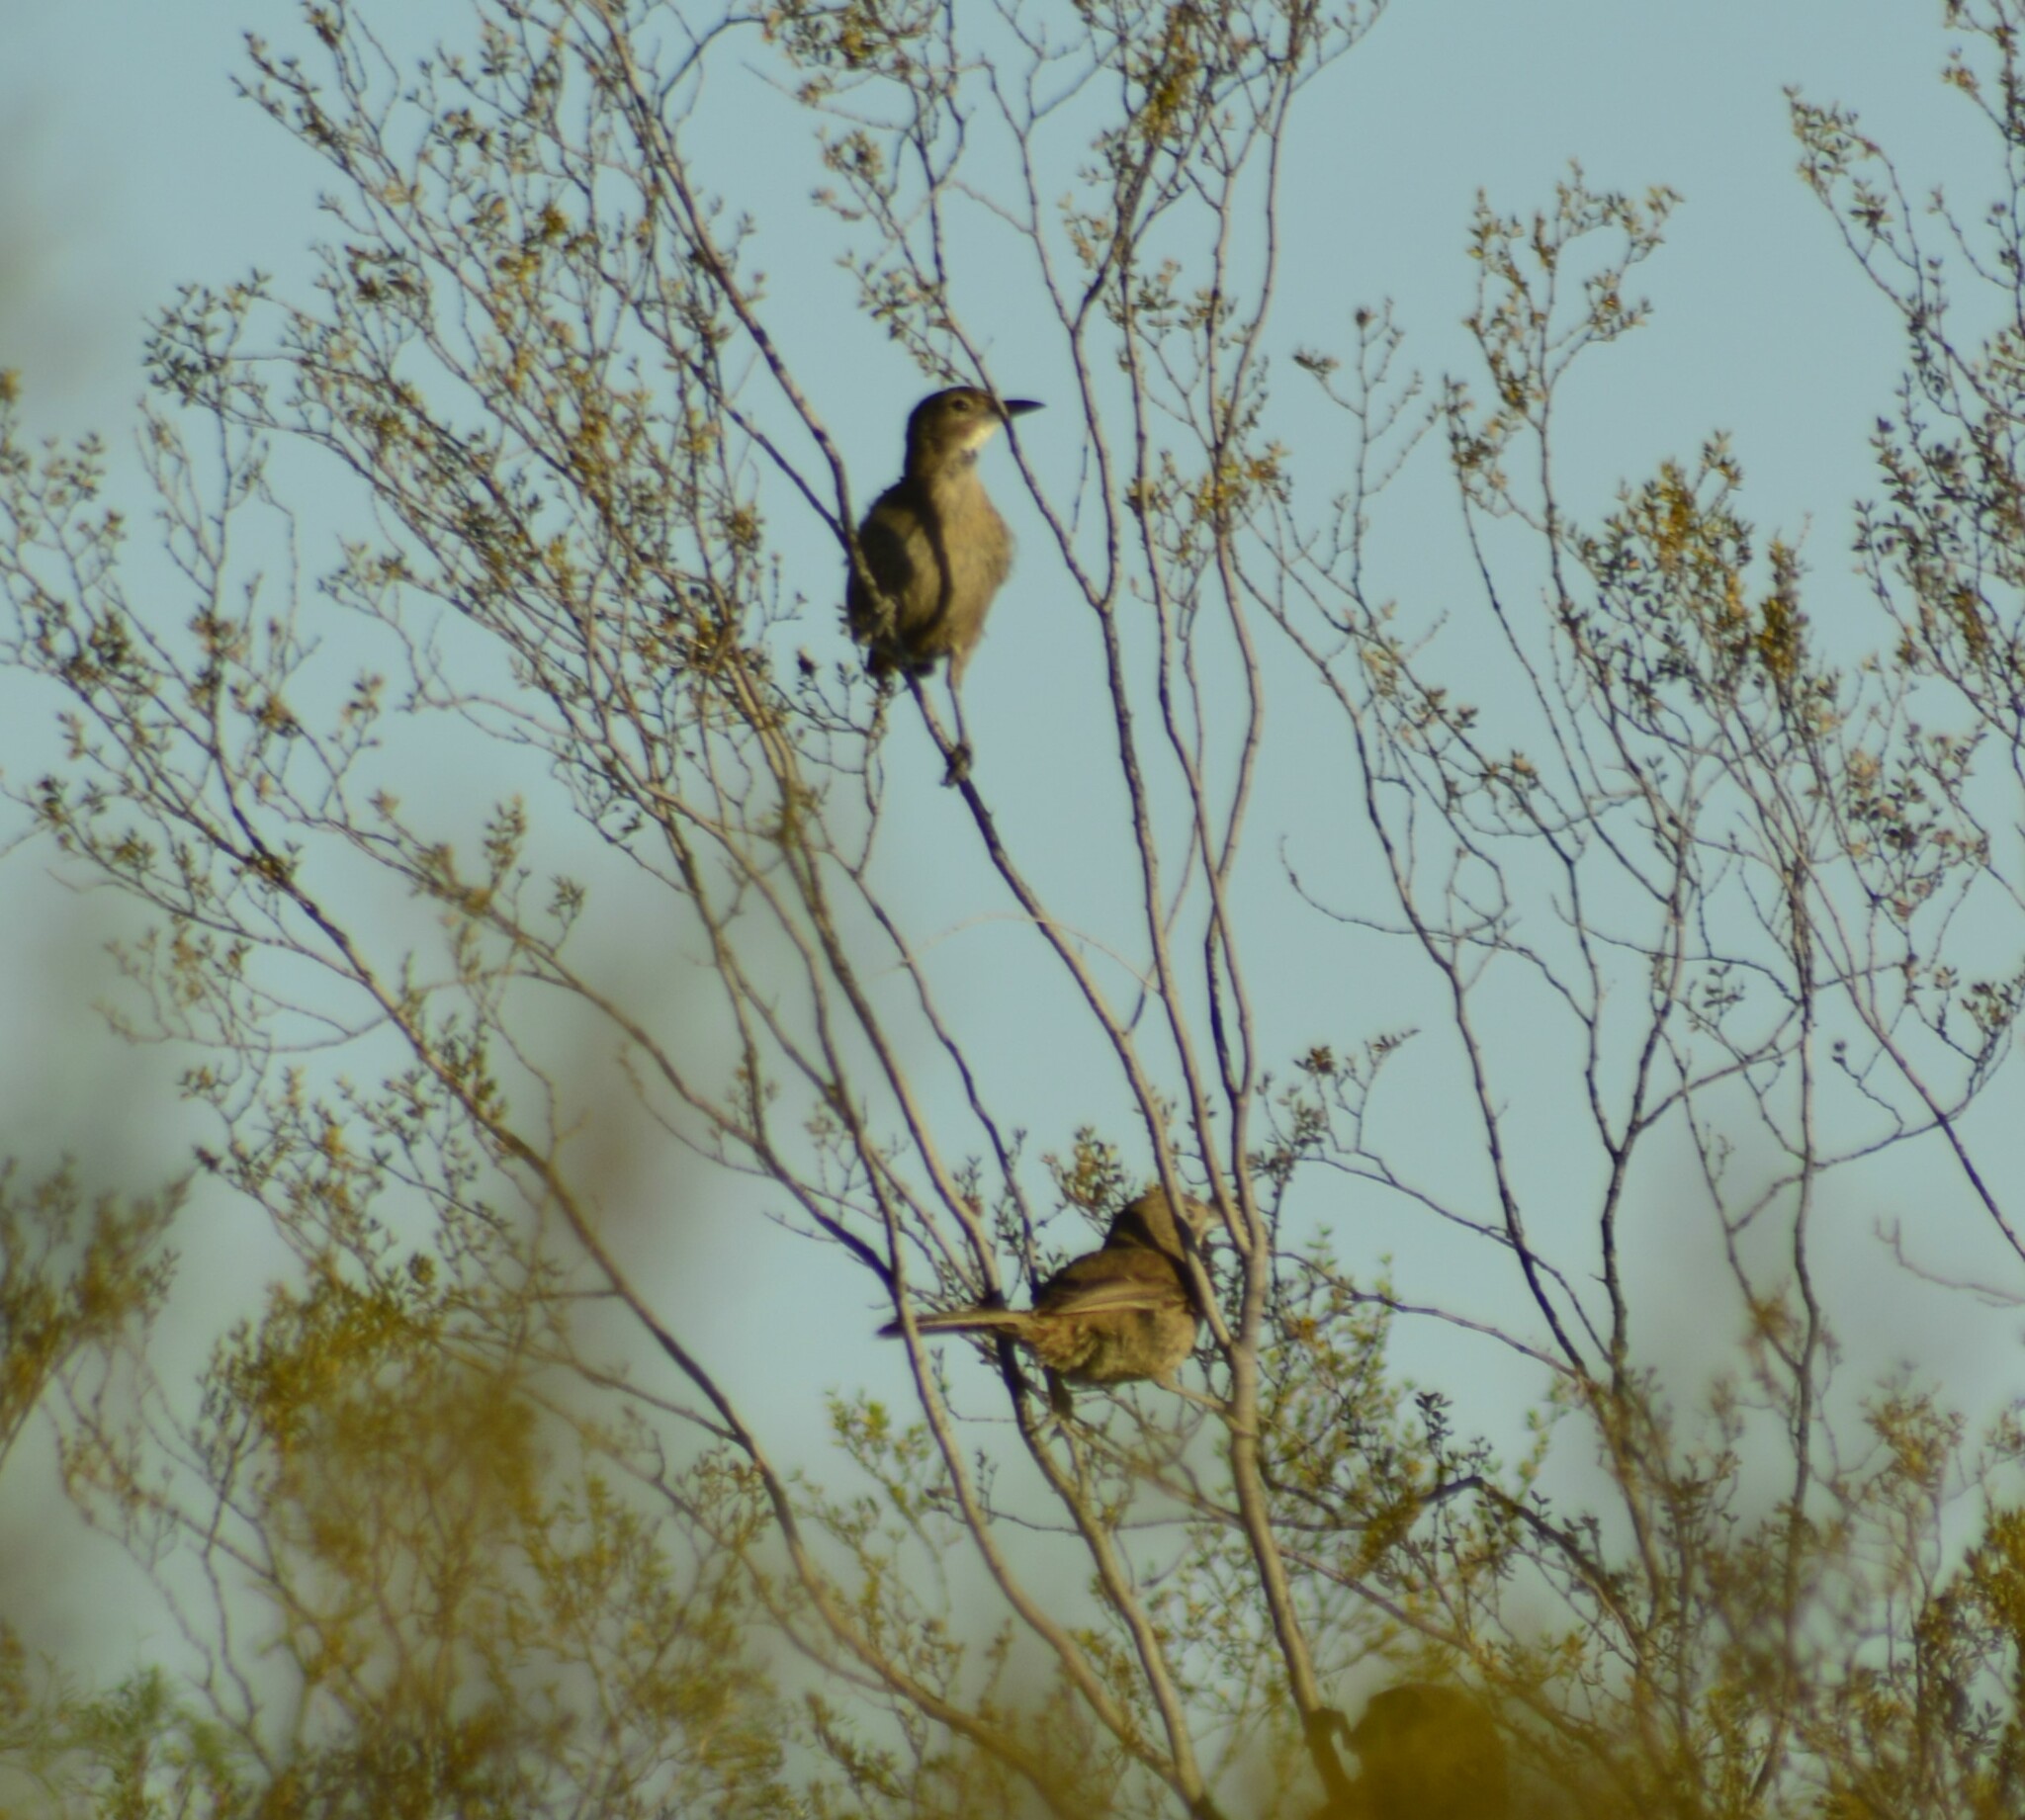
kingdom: Animalia
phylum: Chordata
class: Aves
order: Passeriformes
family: Furnariidae
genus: Pseudoseisura
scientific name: Pseudoseisura gutturalis
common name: White-throated cacholote
